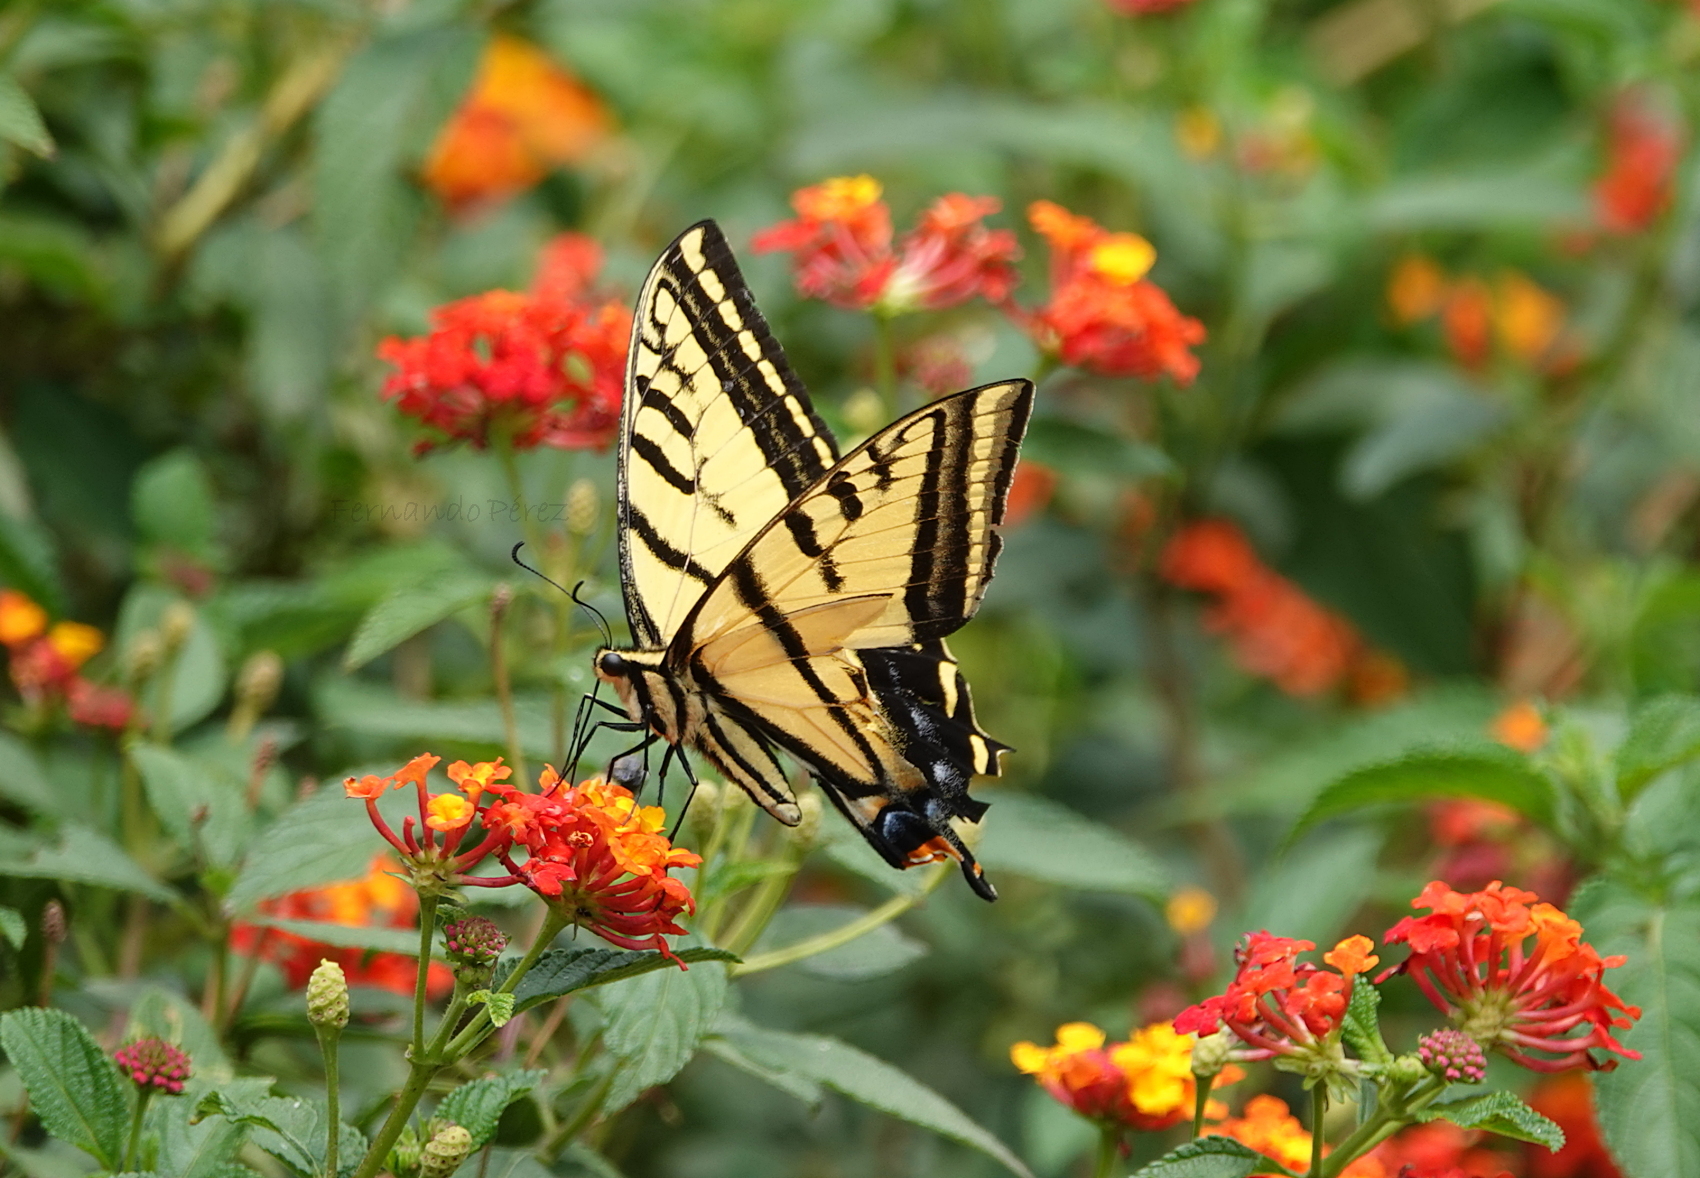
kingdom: Animalia
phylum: Arthropoda
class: Insecta
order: Lepidoptera
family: Papilionidae
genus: Papilio
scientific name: Papilio multicaudata
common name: Two-tailed tiger swallowtail
